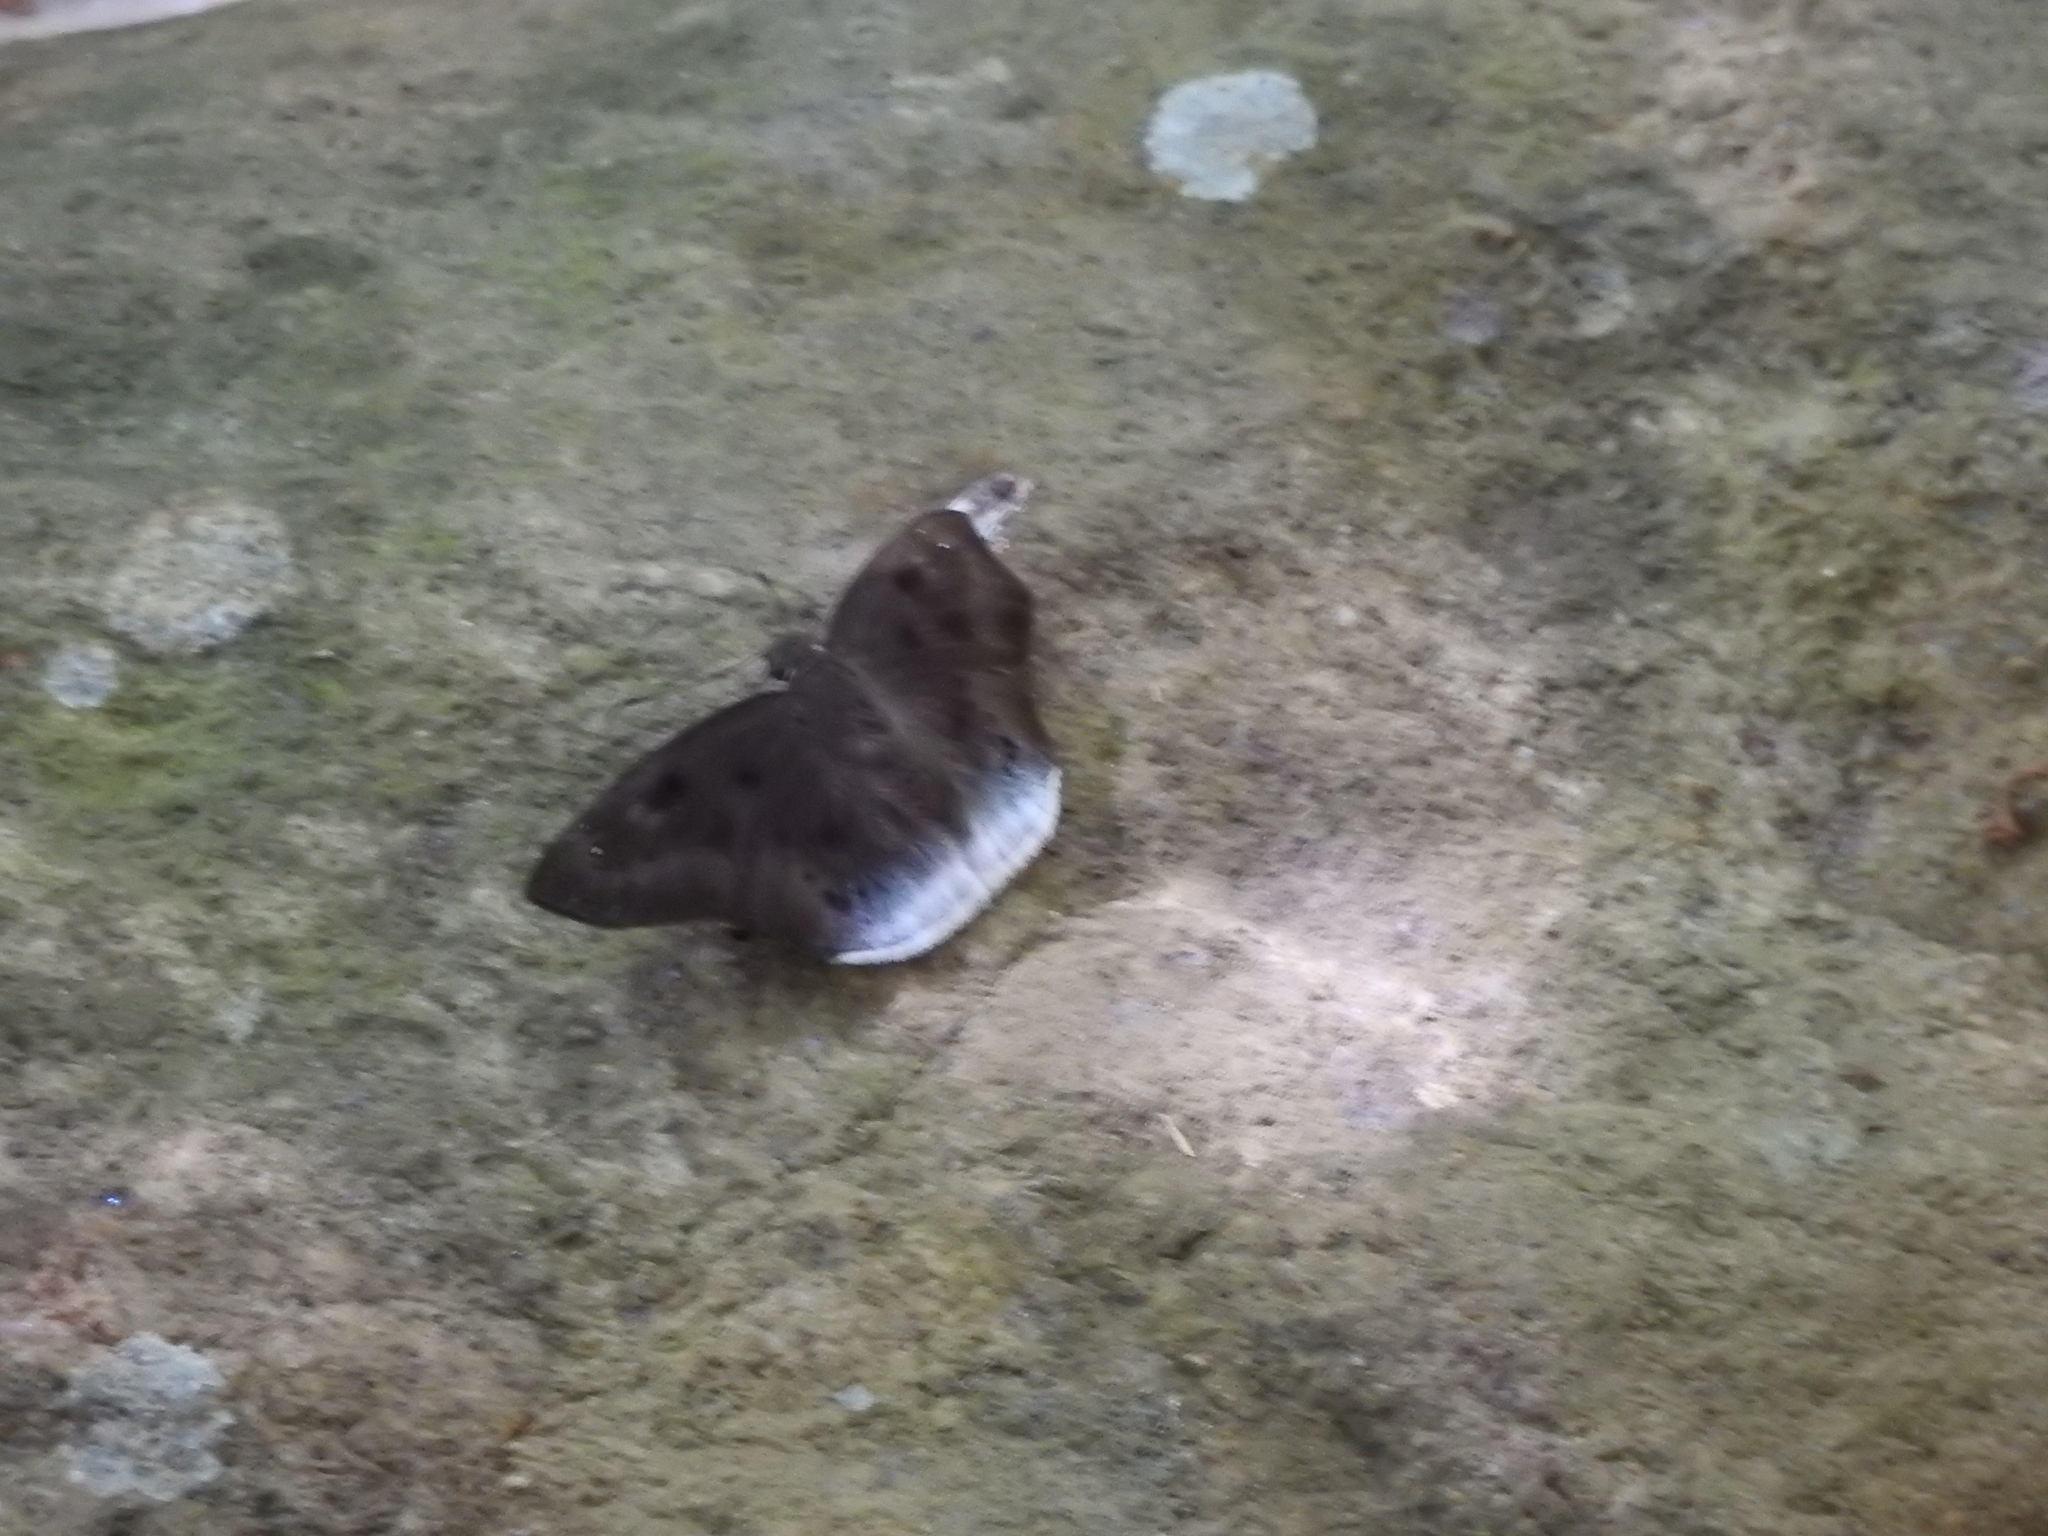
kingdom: Animalia
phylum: Arthropoda
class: Insecta
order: Lepidoptera
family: Hesperiidae
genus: Tagiades
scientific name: Tagiades gana
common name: Suffused snow flat
